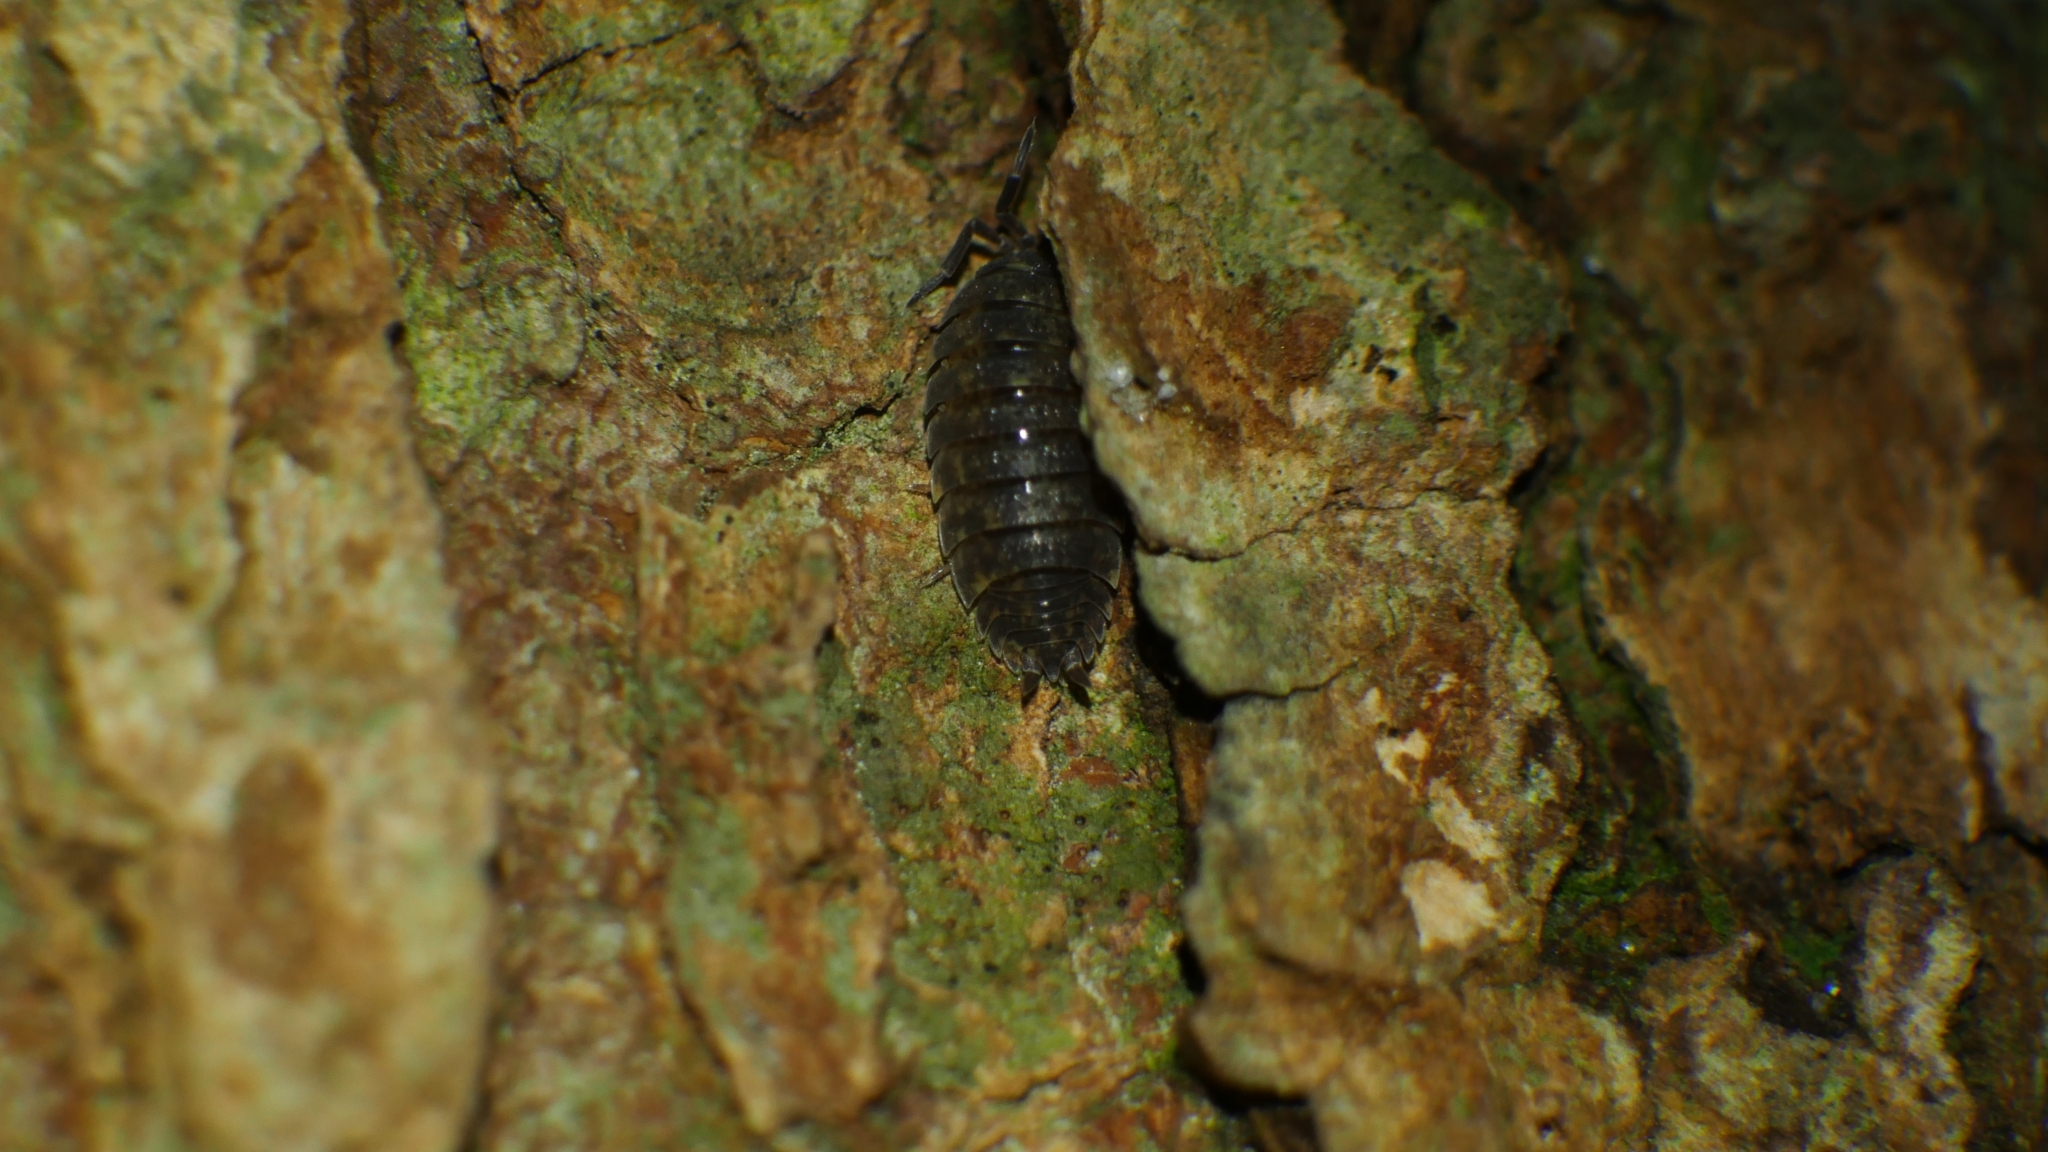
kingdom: Animalia
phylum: Arthropoda
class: Malacostraca
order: Isopoda
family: Porcellionidae
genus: Porcellio
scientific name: Porcellio scaber
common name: Common rough woodlouse
